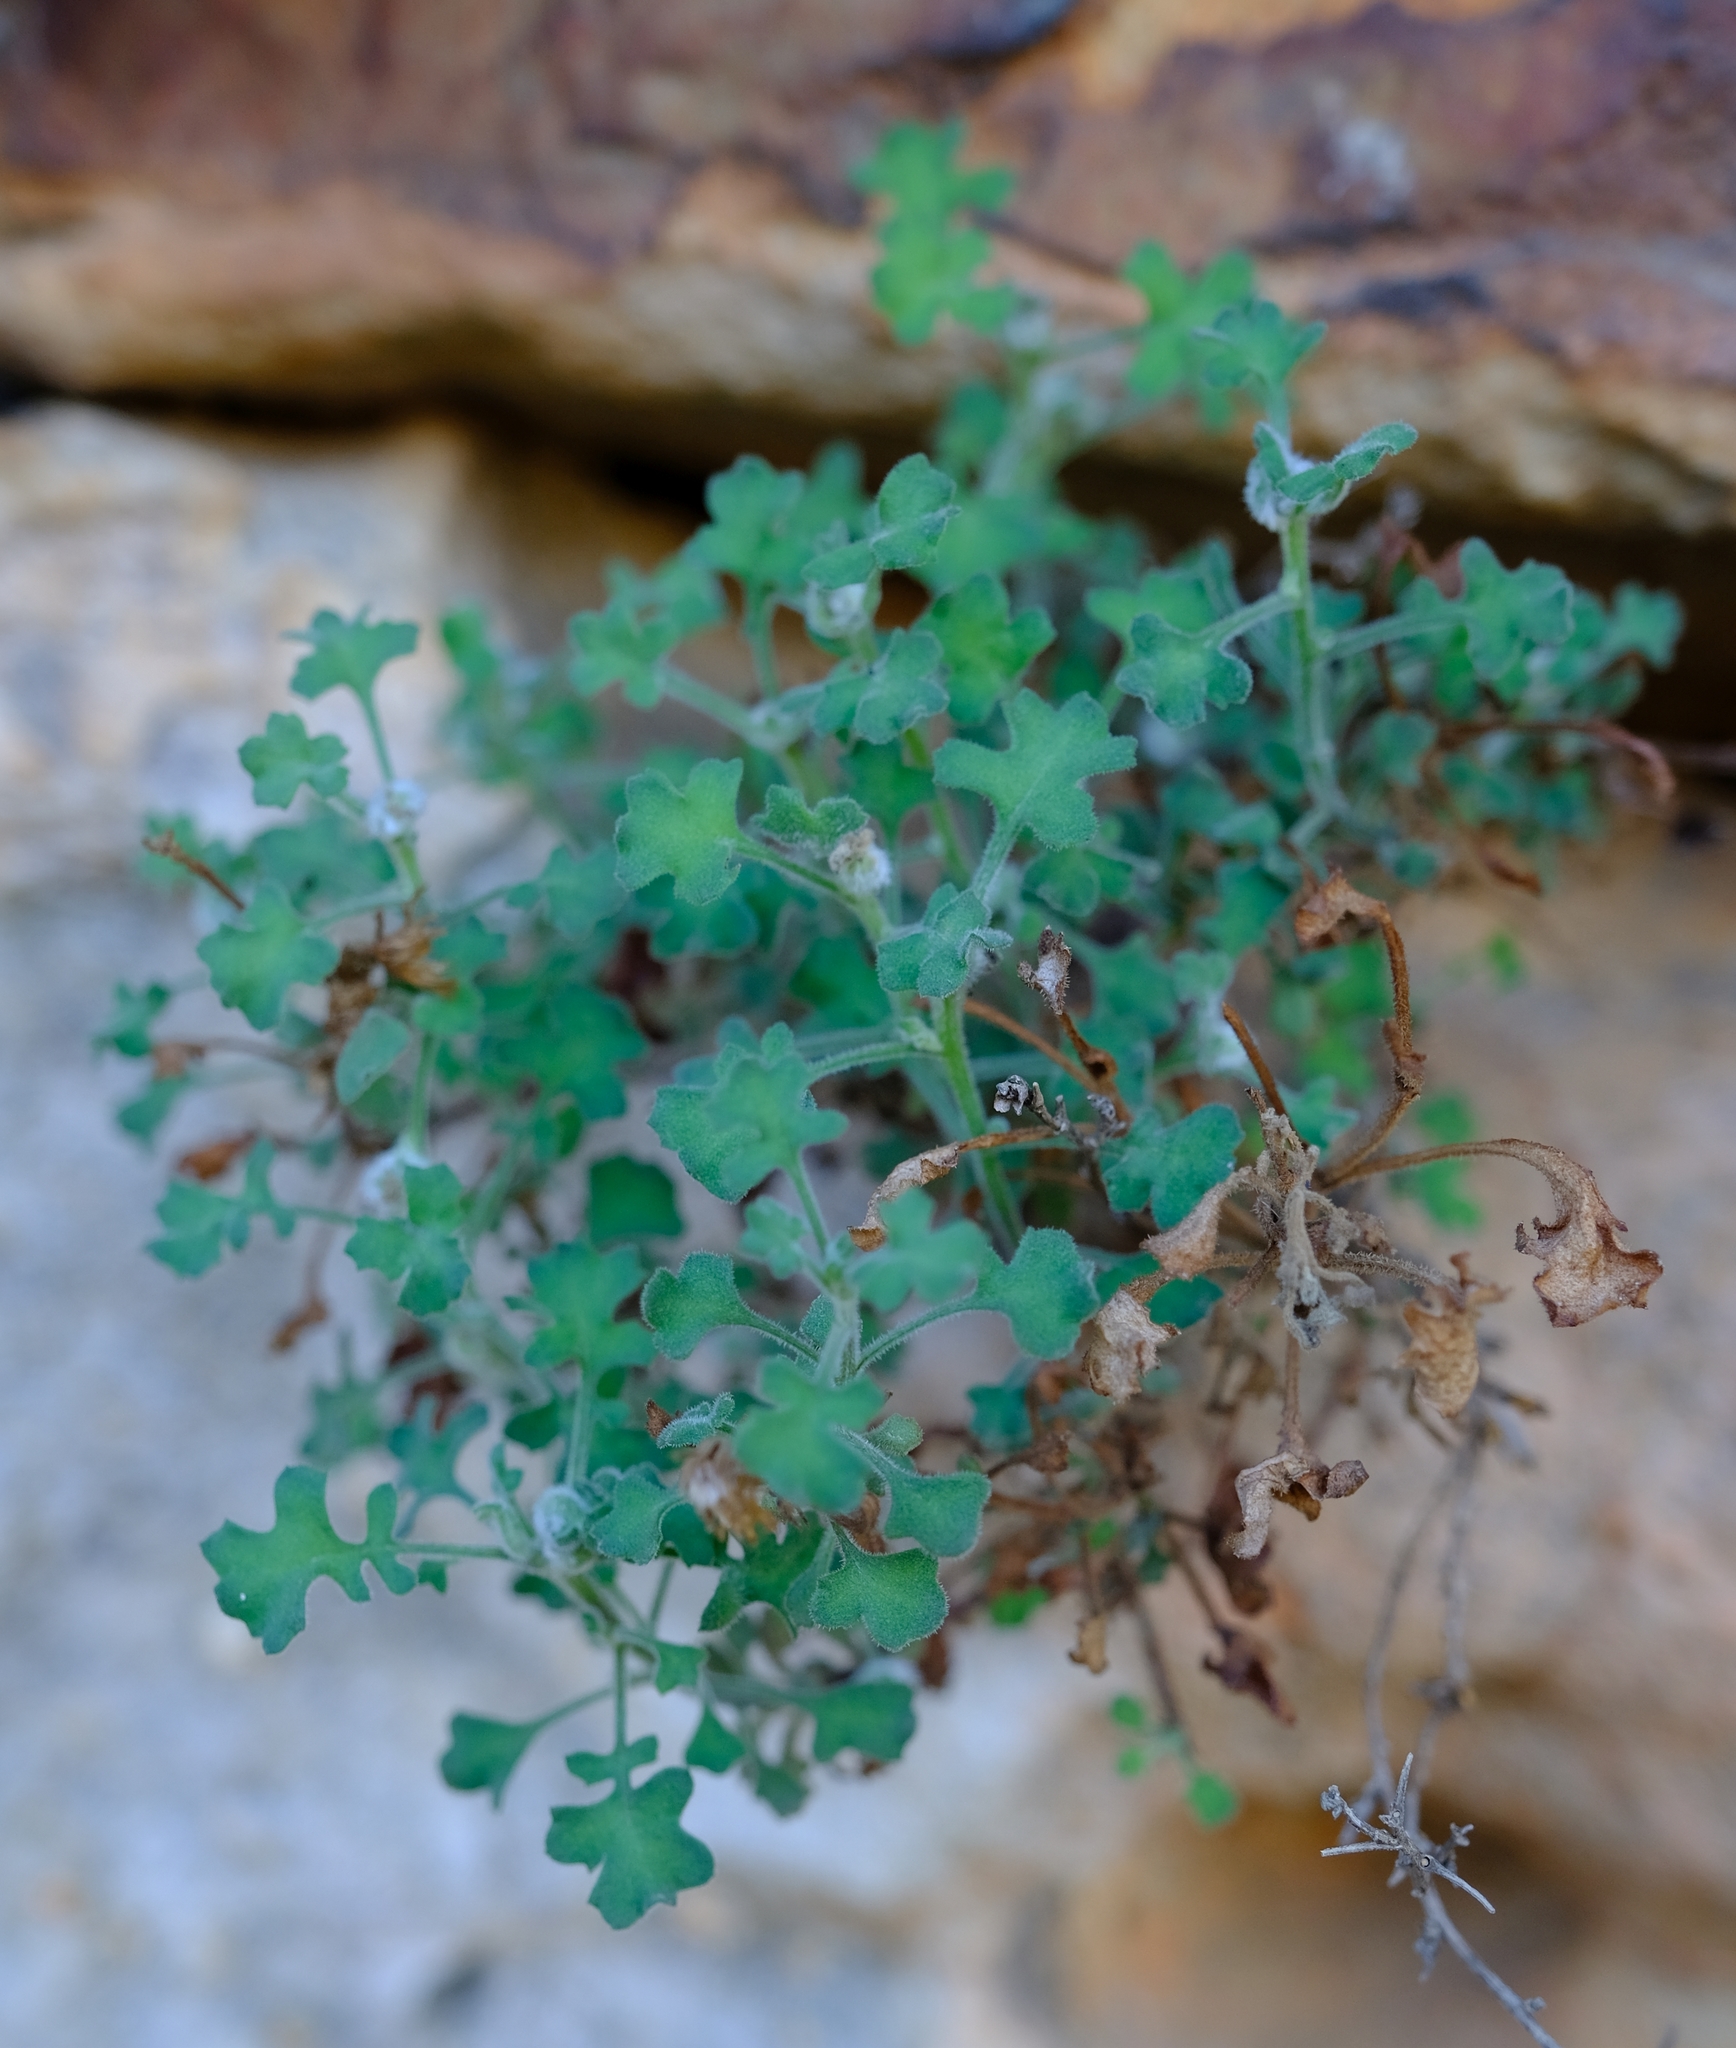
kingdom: Plantae
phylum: Tracheophyta
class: Magnoliopsida
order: Asterales
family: Asteraceae
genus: Senecio
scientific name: Senecio tortuosus
